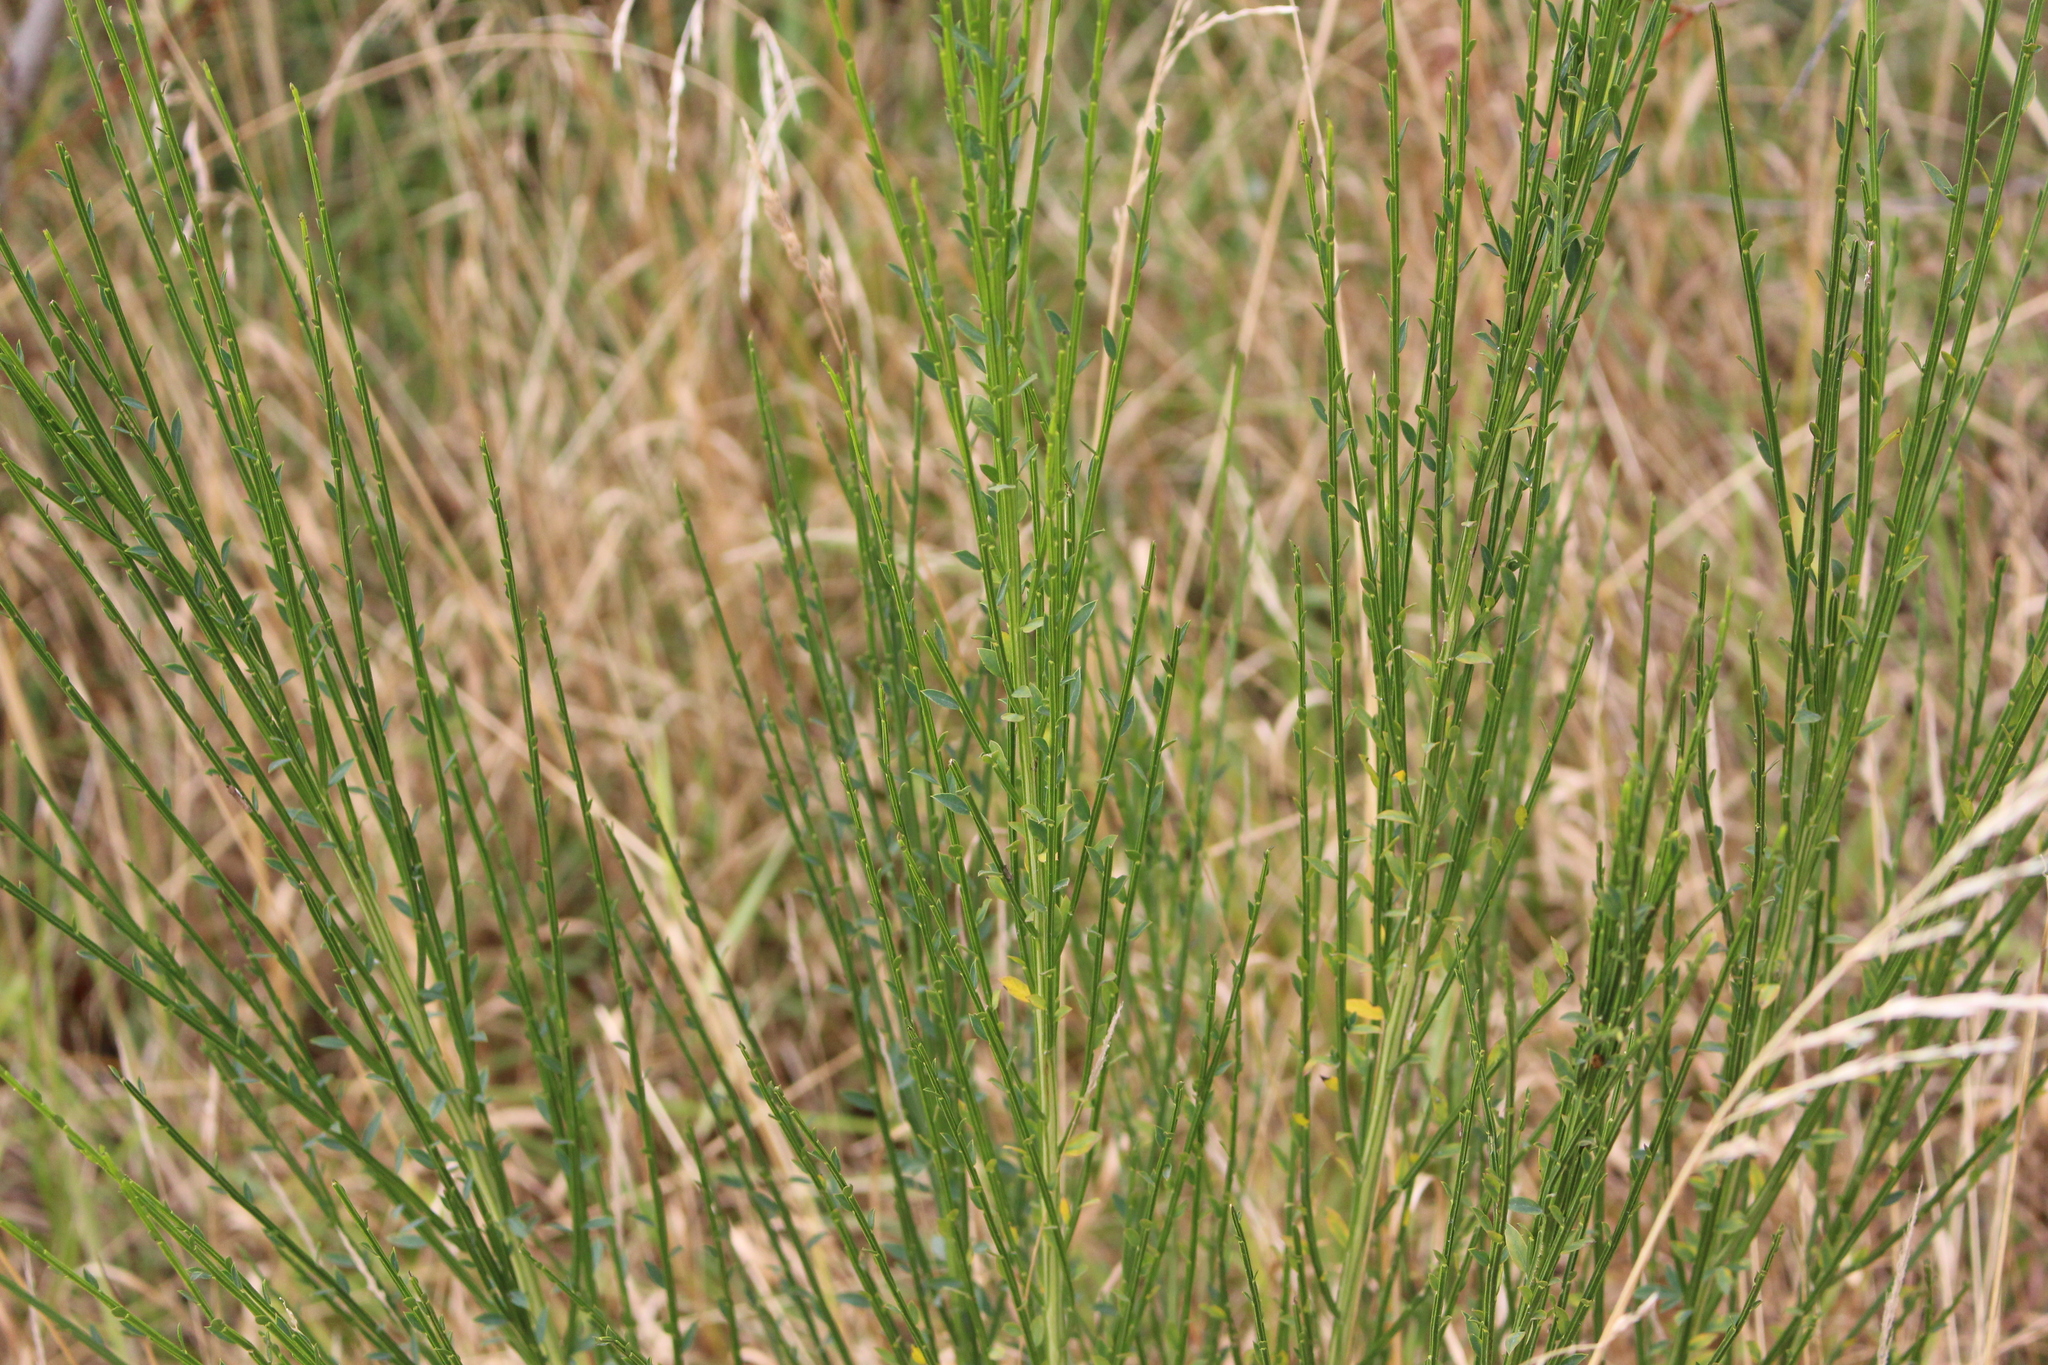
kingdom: Plantae
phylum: Tracheophyta
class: Magnoliopsida
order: Fabales
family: Fabaceae
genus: Cytisus
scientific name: Cytisus scoparius
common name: Scotch broom
